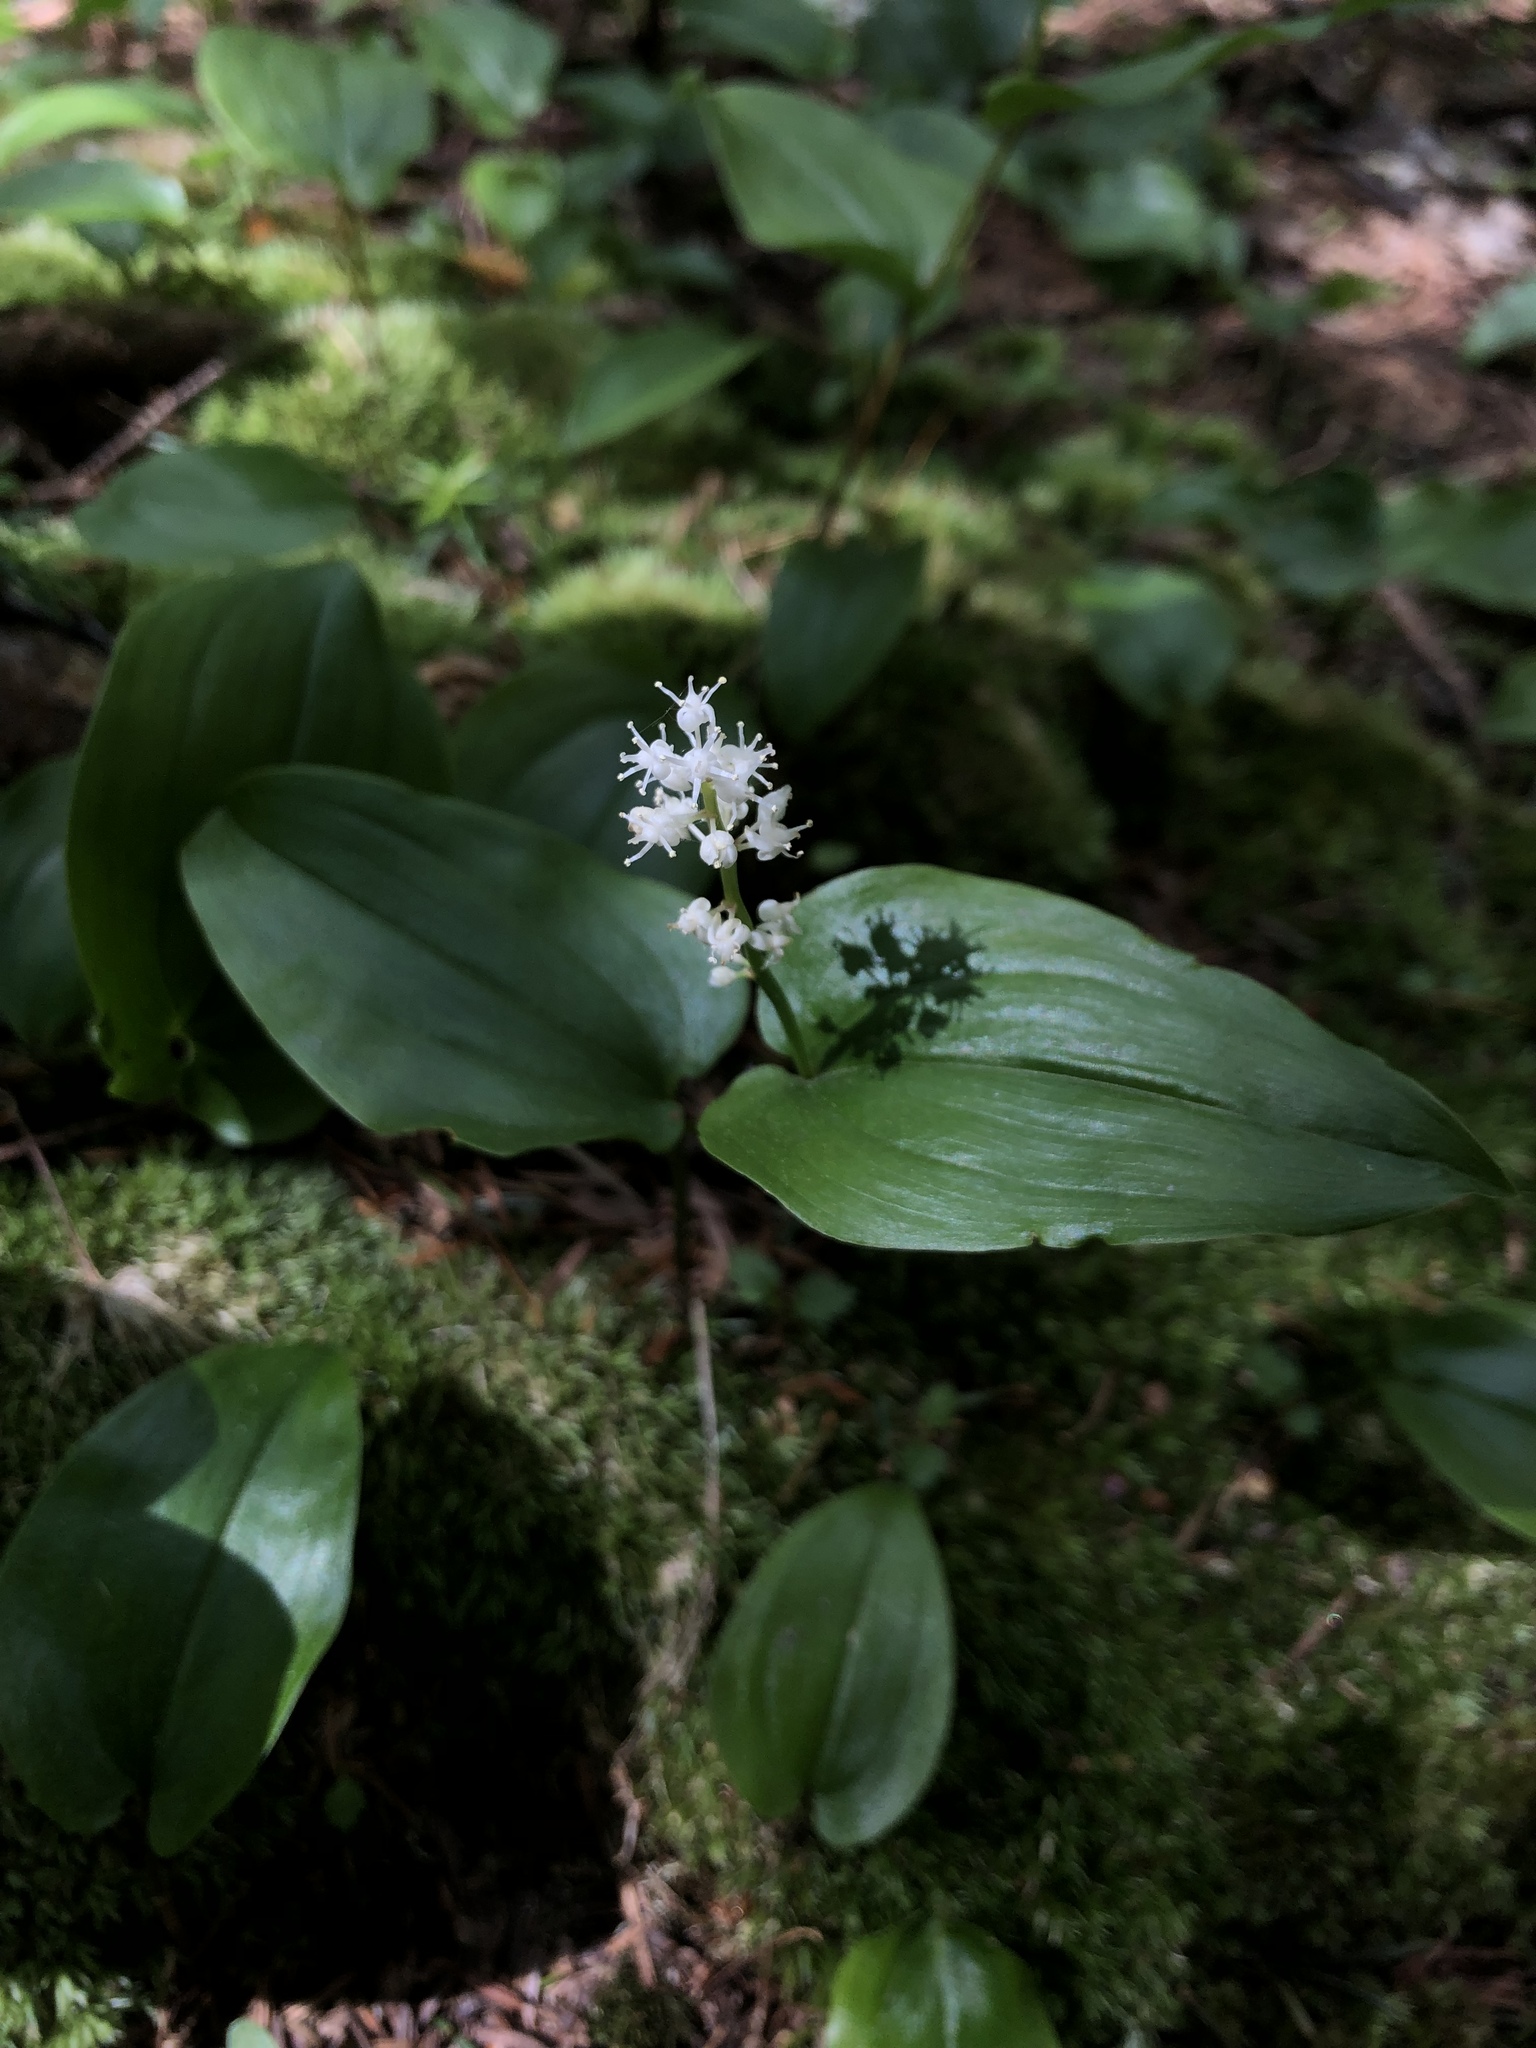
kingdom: Plantae
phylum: Tracheophyta
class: Liliopsida
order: Asparagales
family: Asparagaceae
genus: Maianthemum
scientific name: Maianthemum canadense
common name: False lily-of-the-valley
